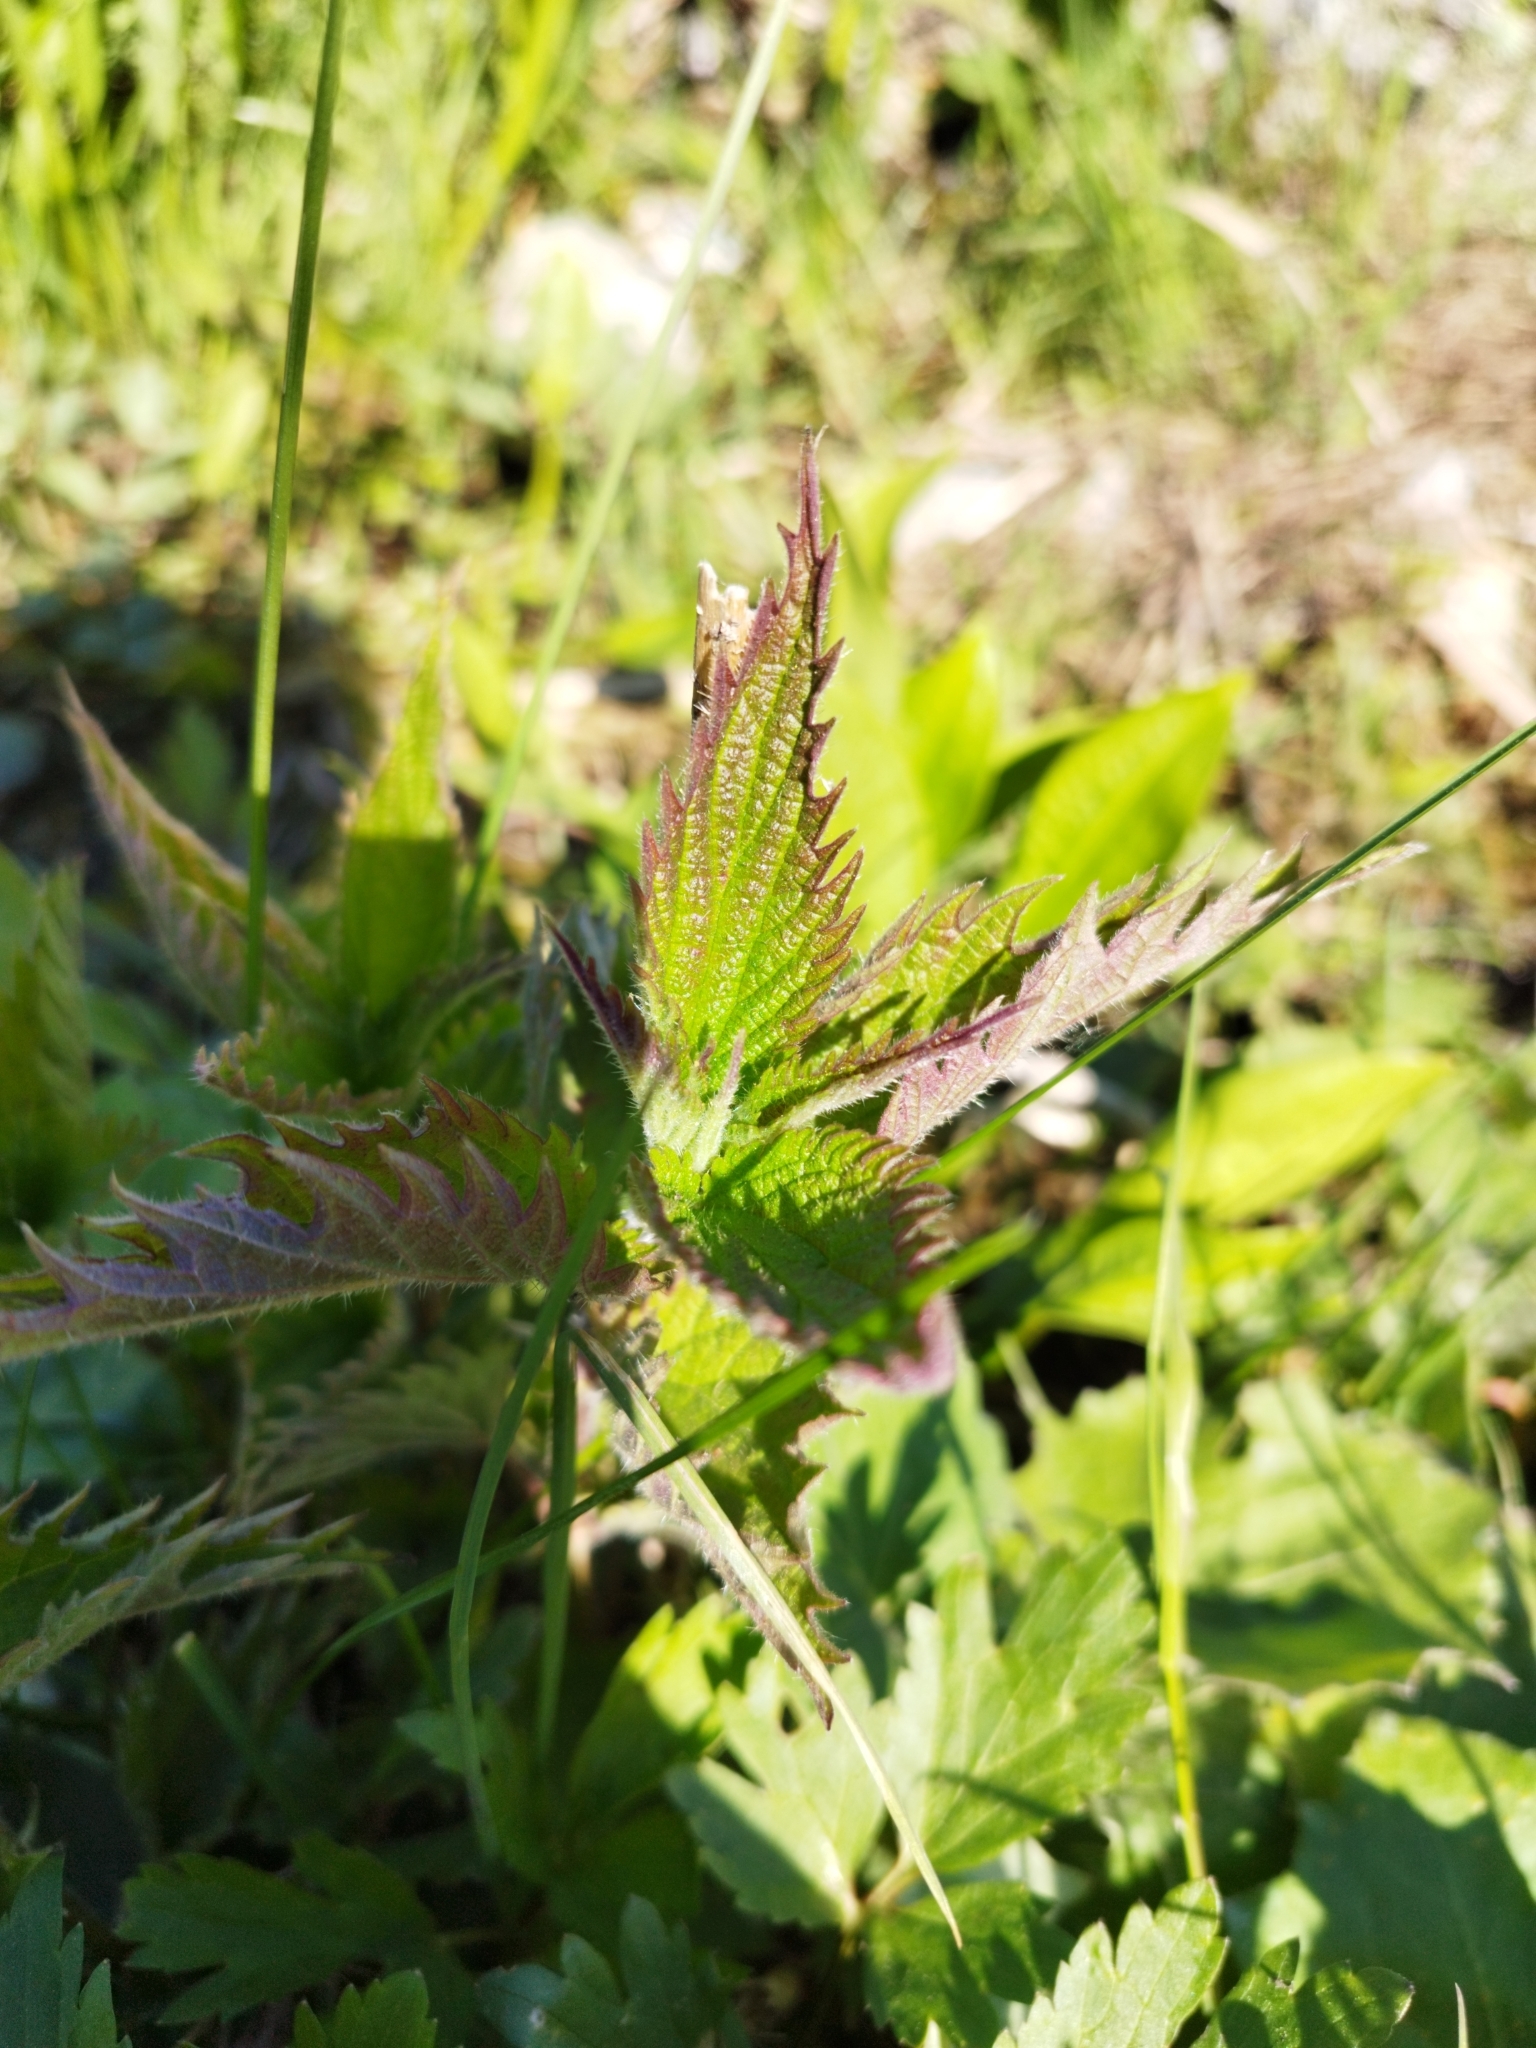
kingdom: Plantae
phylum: Tracheophyta
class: Magnoliopsida
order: Rosales
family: Urticaceae
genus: Urtica
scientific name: Urtica dioica
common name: Common nettle
